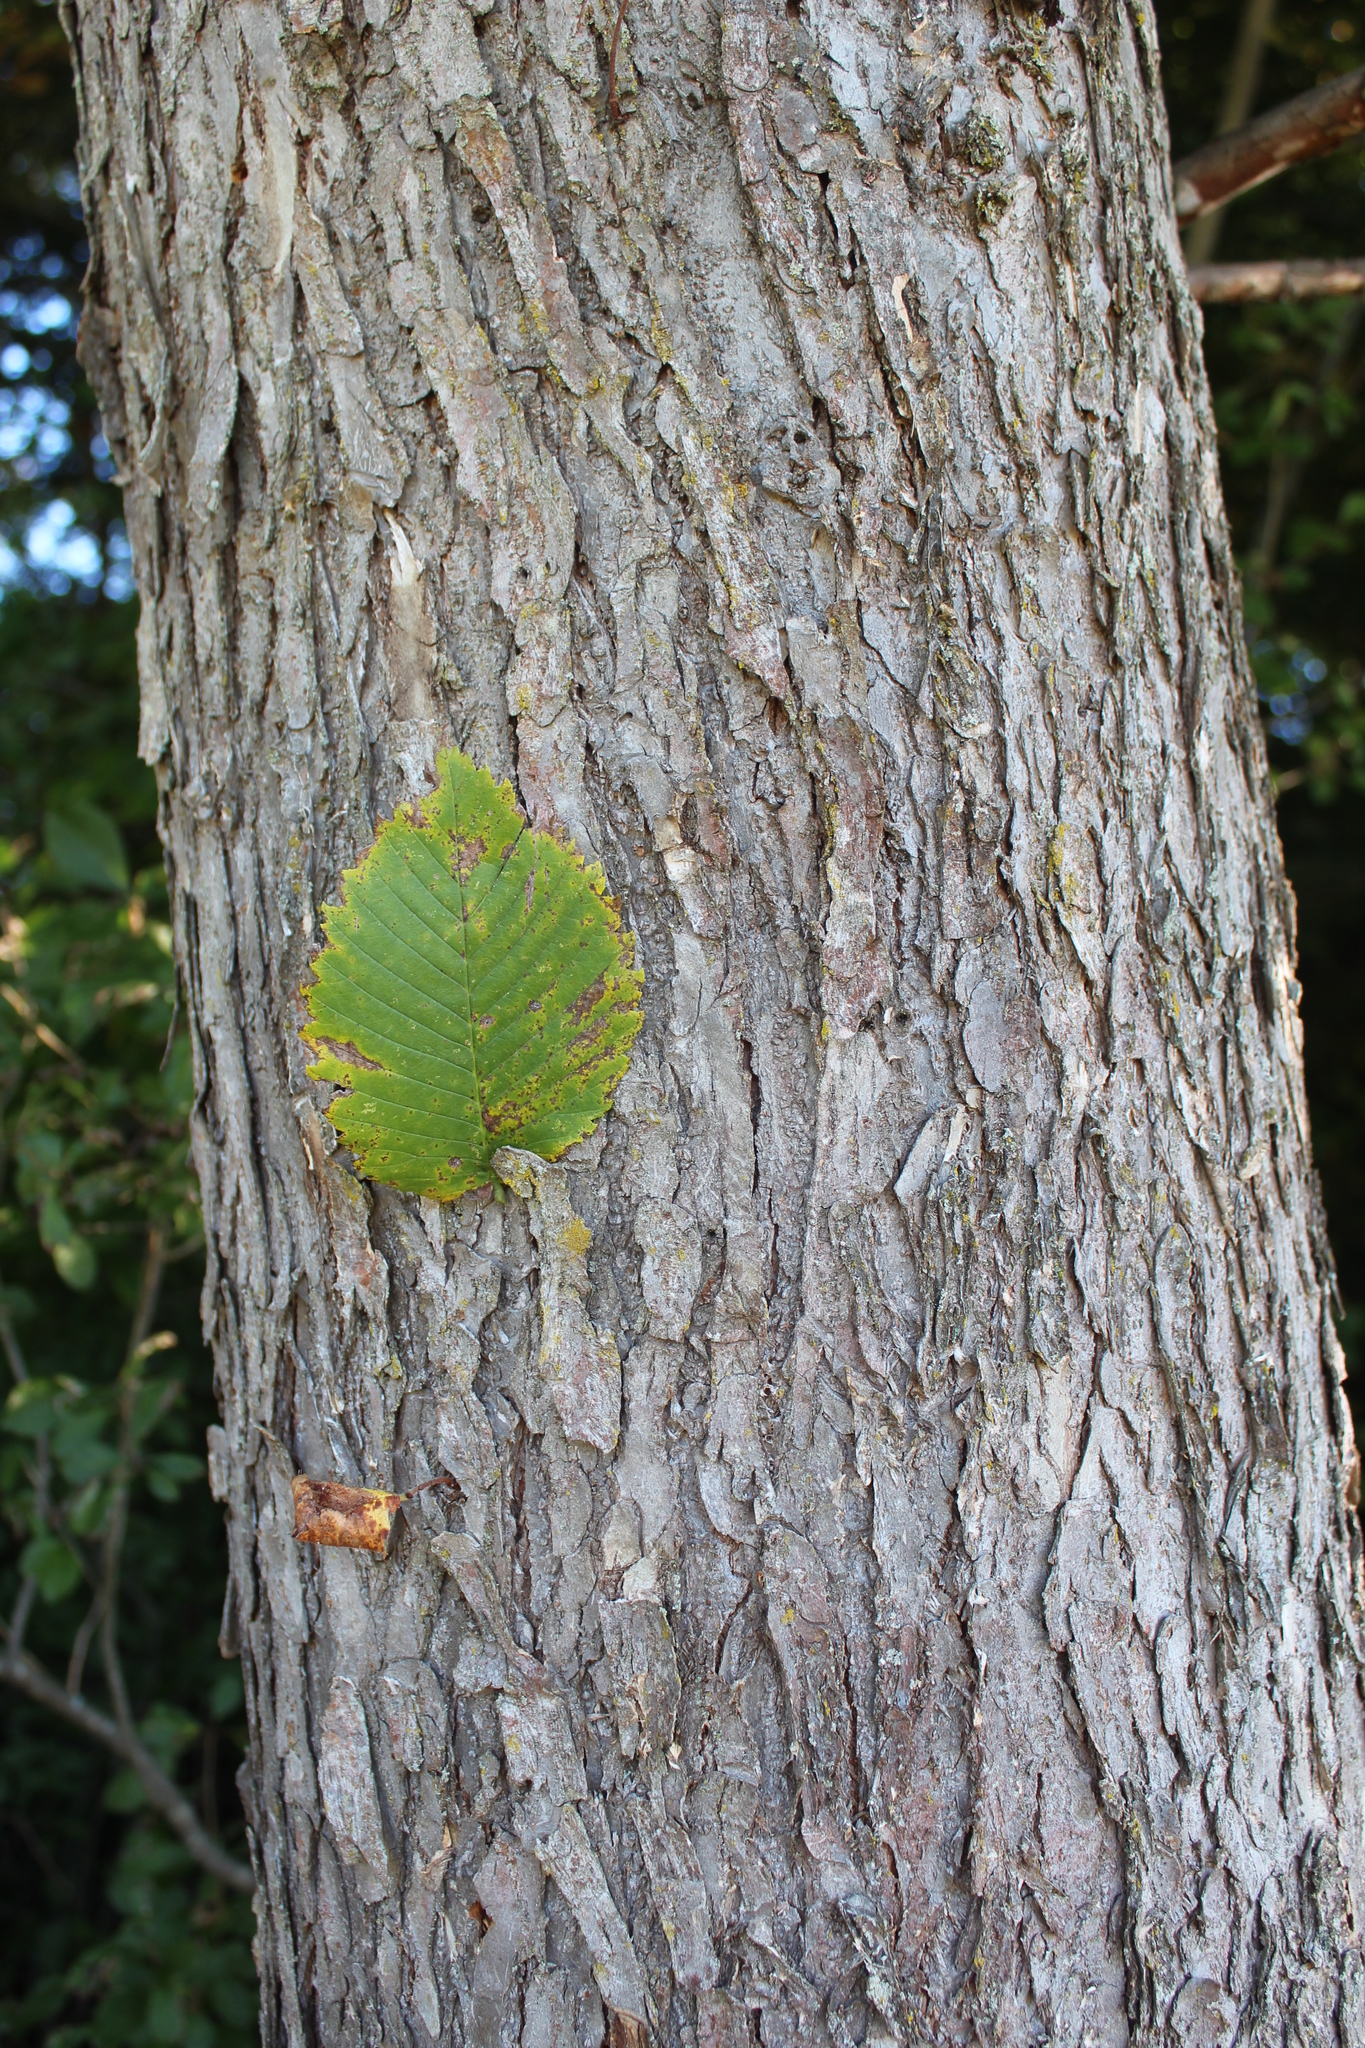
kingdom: Plantae
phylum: Tracheophyta
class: Magnoliopsida
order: Rosales
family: Ulmaceae
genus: Ulmus
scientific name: Ulmus americana
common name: American elm
